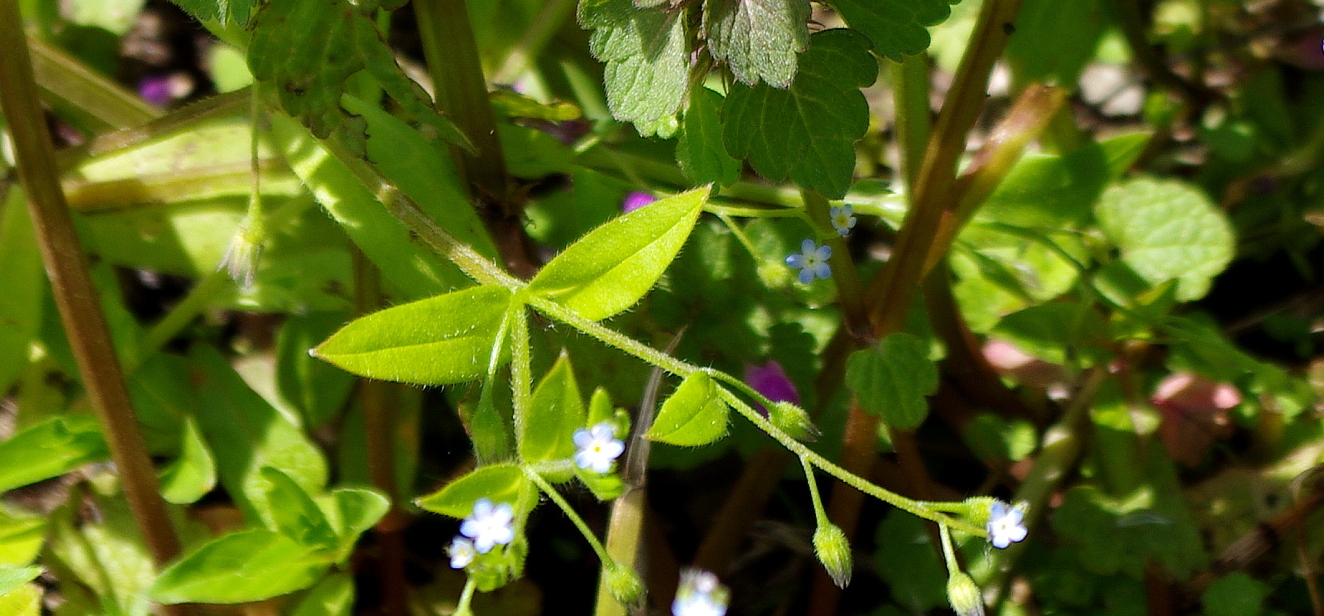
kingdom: Plantae
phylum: Tracheophyta
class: Magnoliopsida
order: Boraginales
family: Boraginaceae
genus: Myosotis
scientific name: Myosotis sparsiflora
